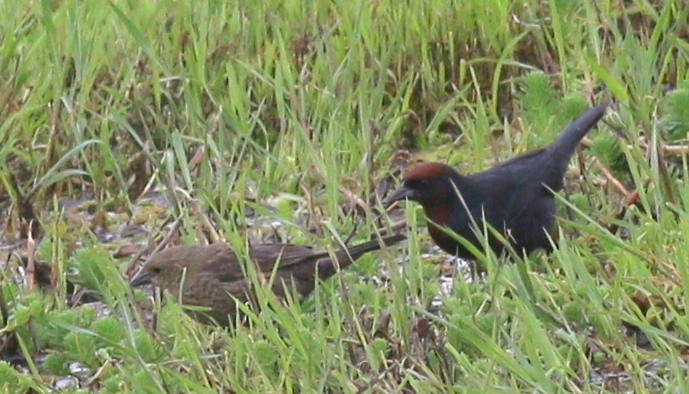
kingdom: Animalia
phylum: Chordata
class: Aves
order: Passeriformes
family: Icteridae
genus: Chrysomus
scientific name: Chrysomus ruficapillus
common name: Chestnut-capped blackbird
